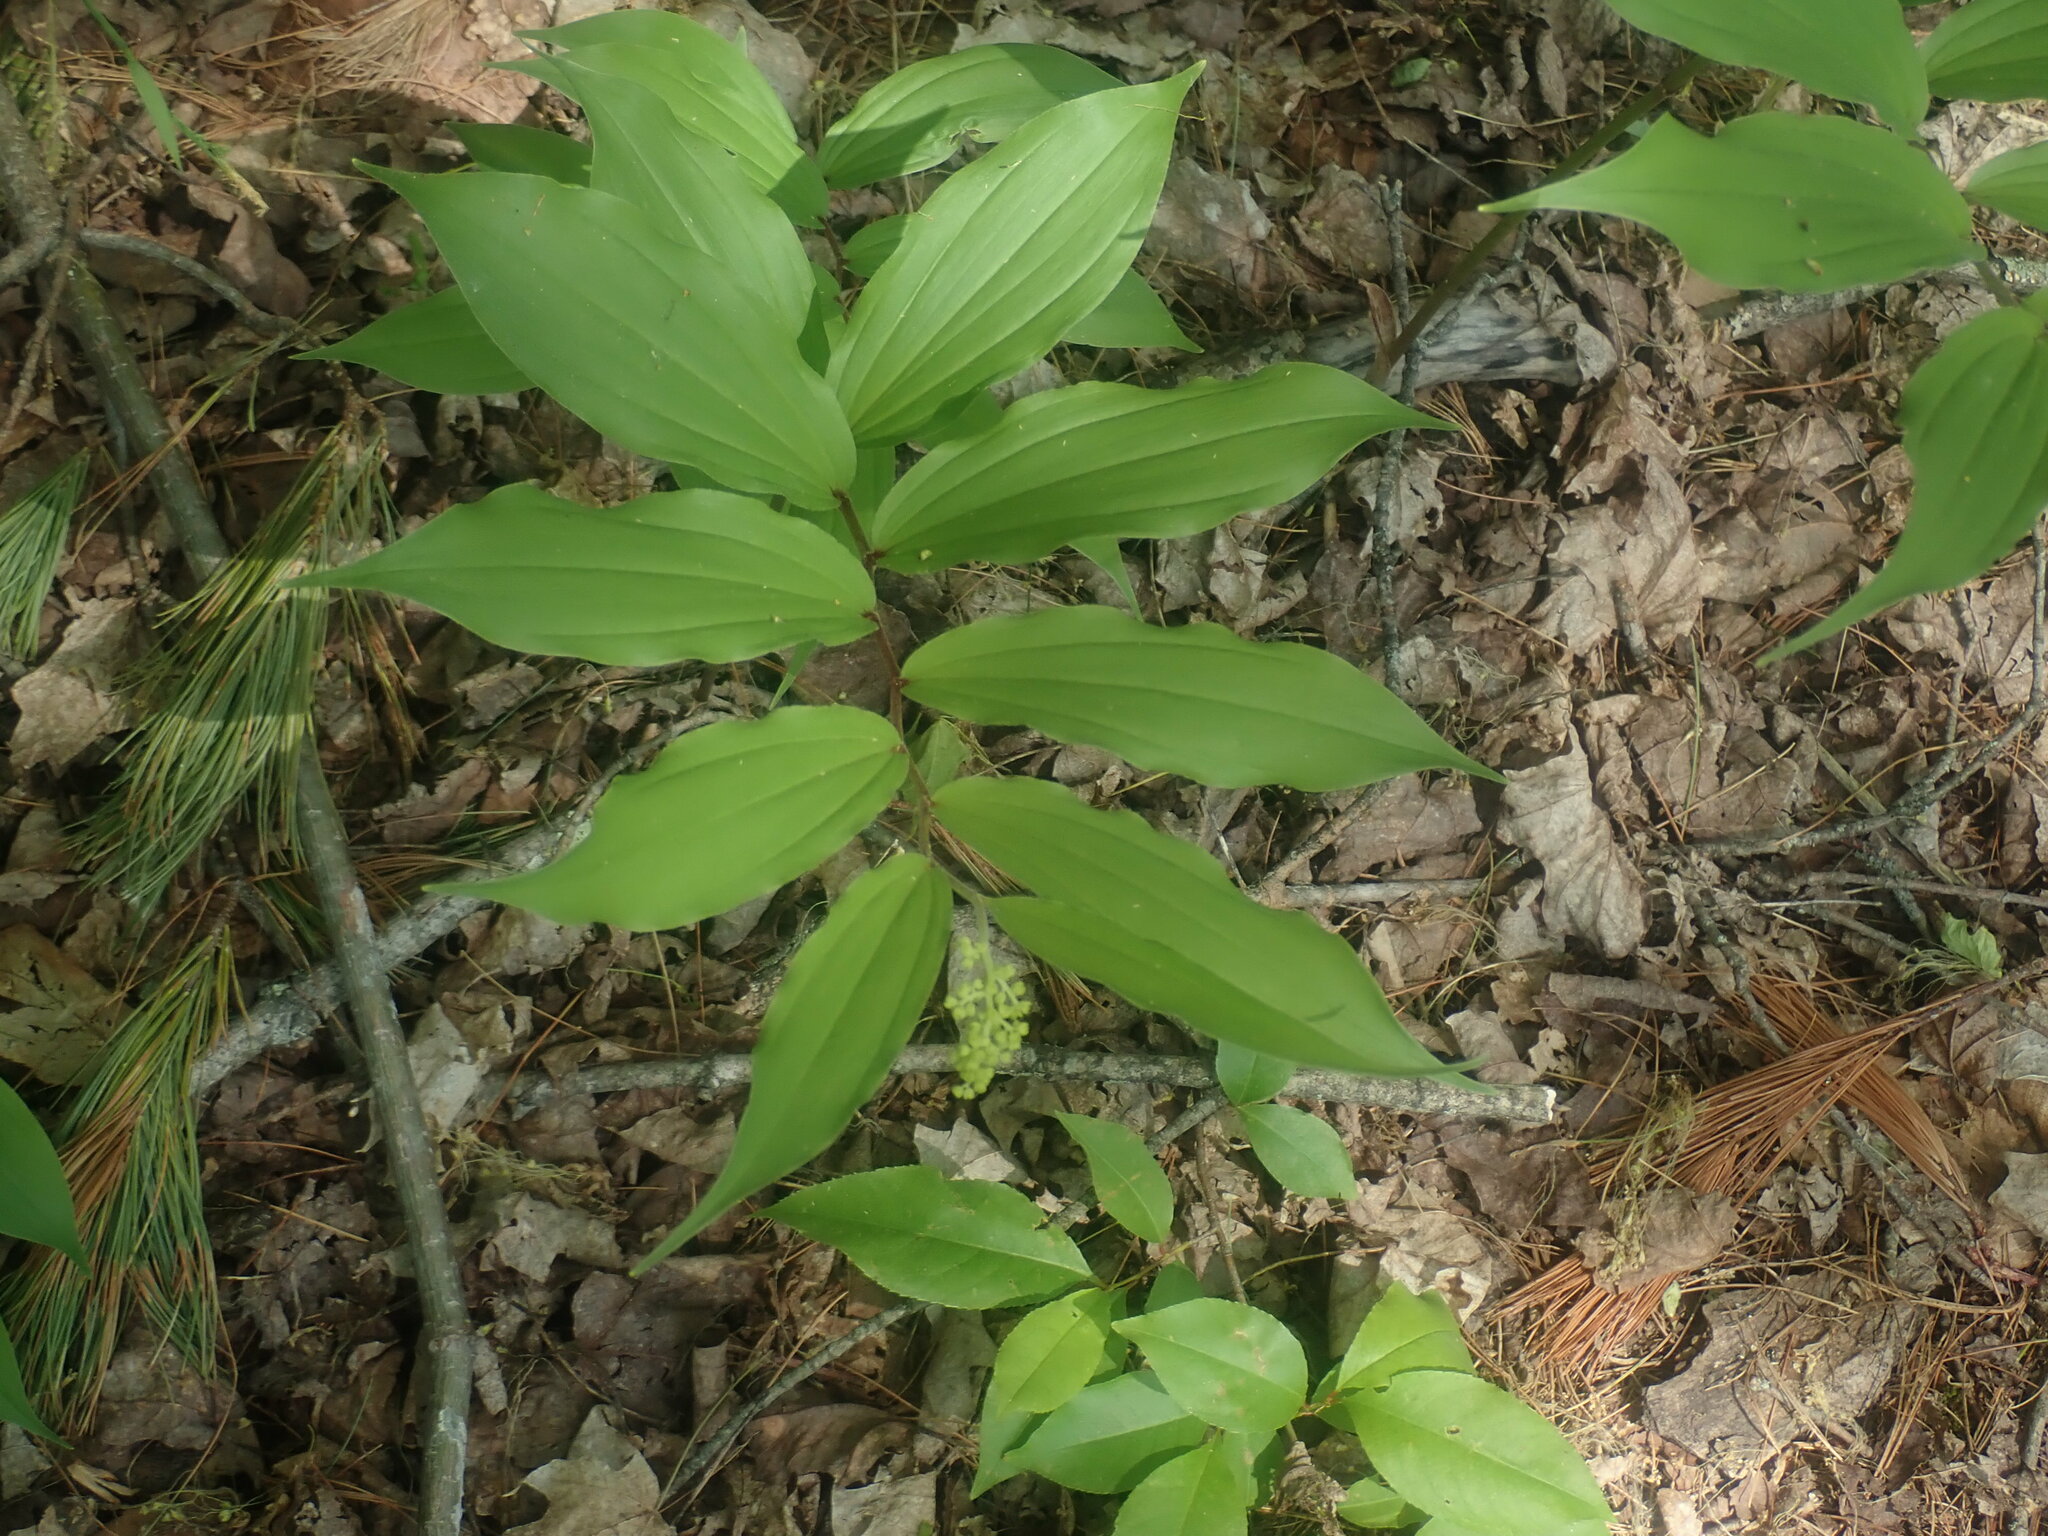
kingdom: Plantae
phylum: Tracheophyta
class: Liliopsida
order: Asparagales
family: Asparagaceae
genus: Maianthemum
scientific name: Maianthemum racemosum
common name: False spikenard
